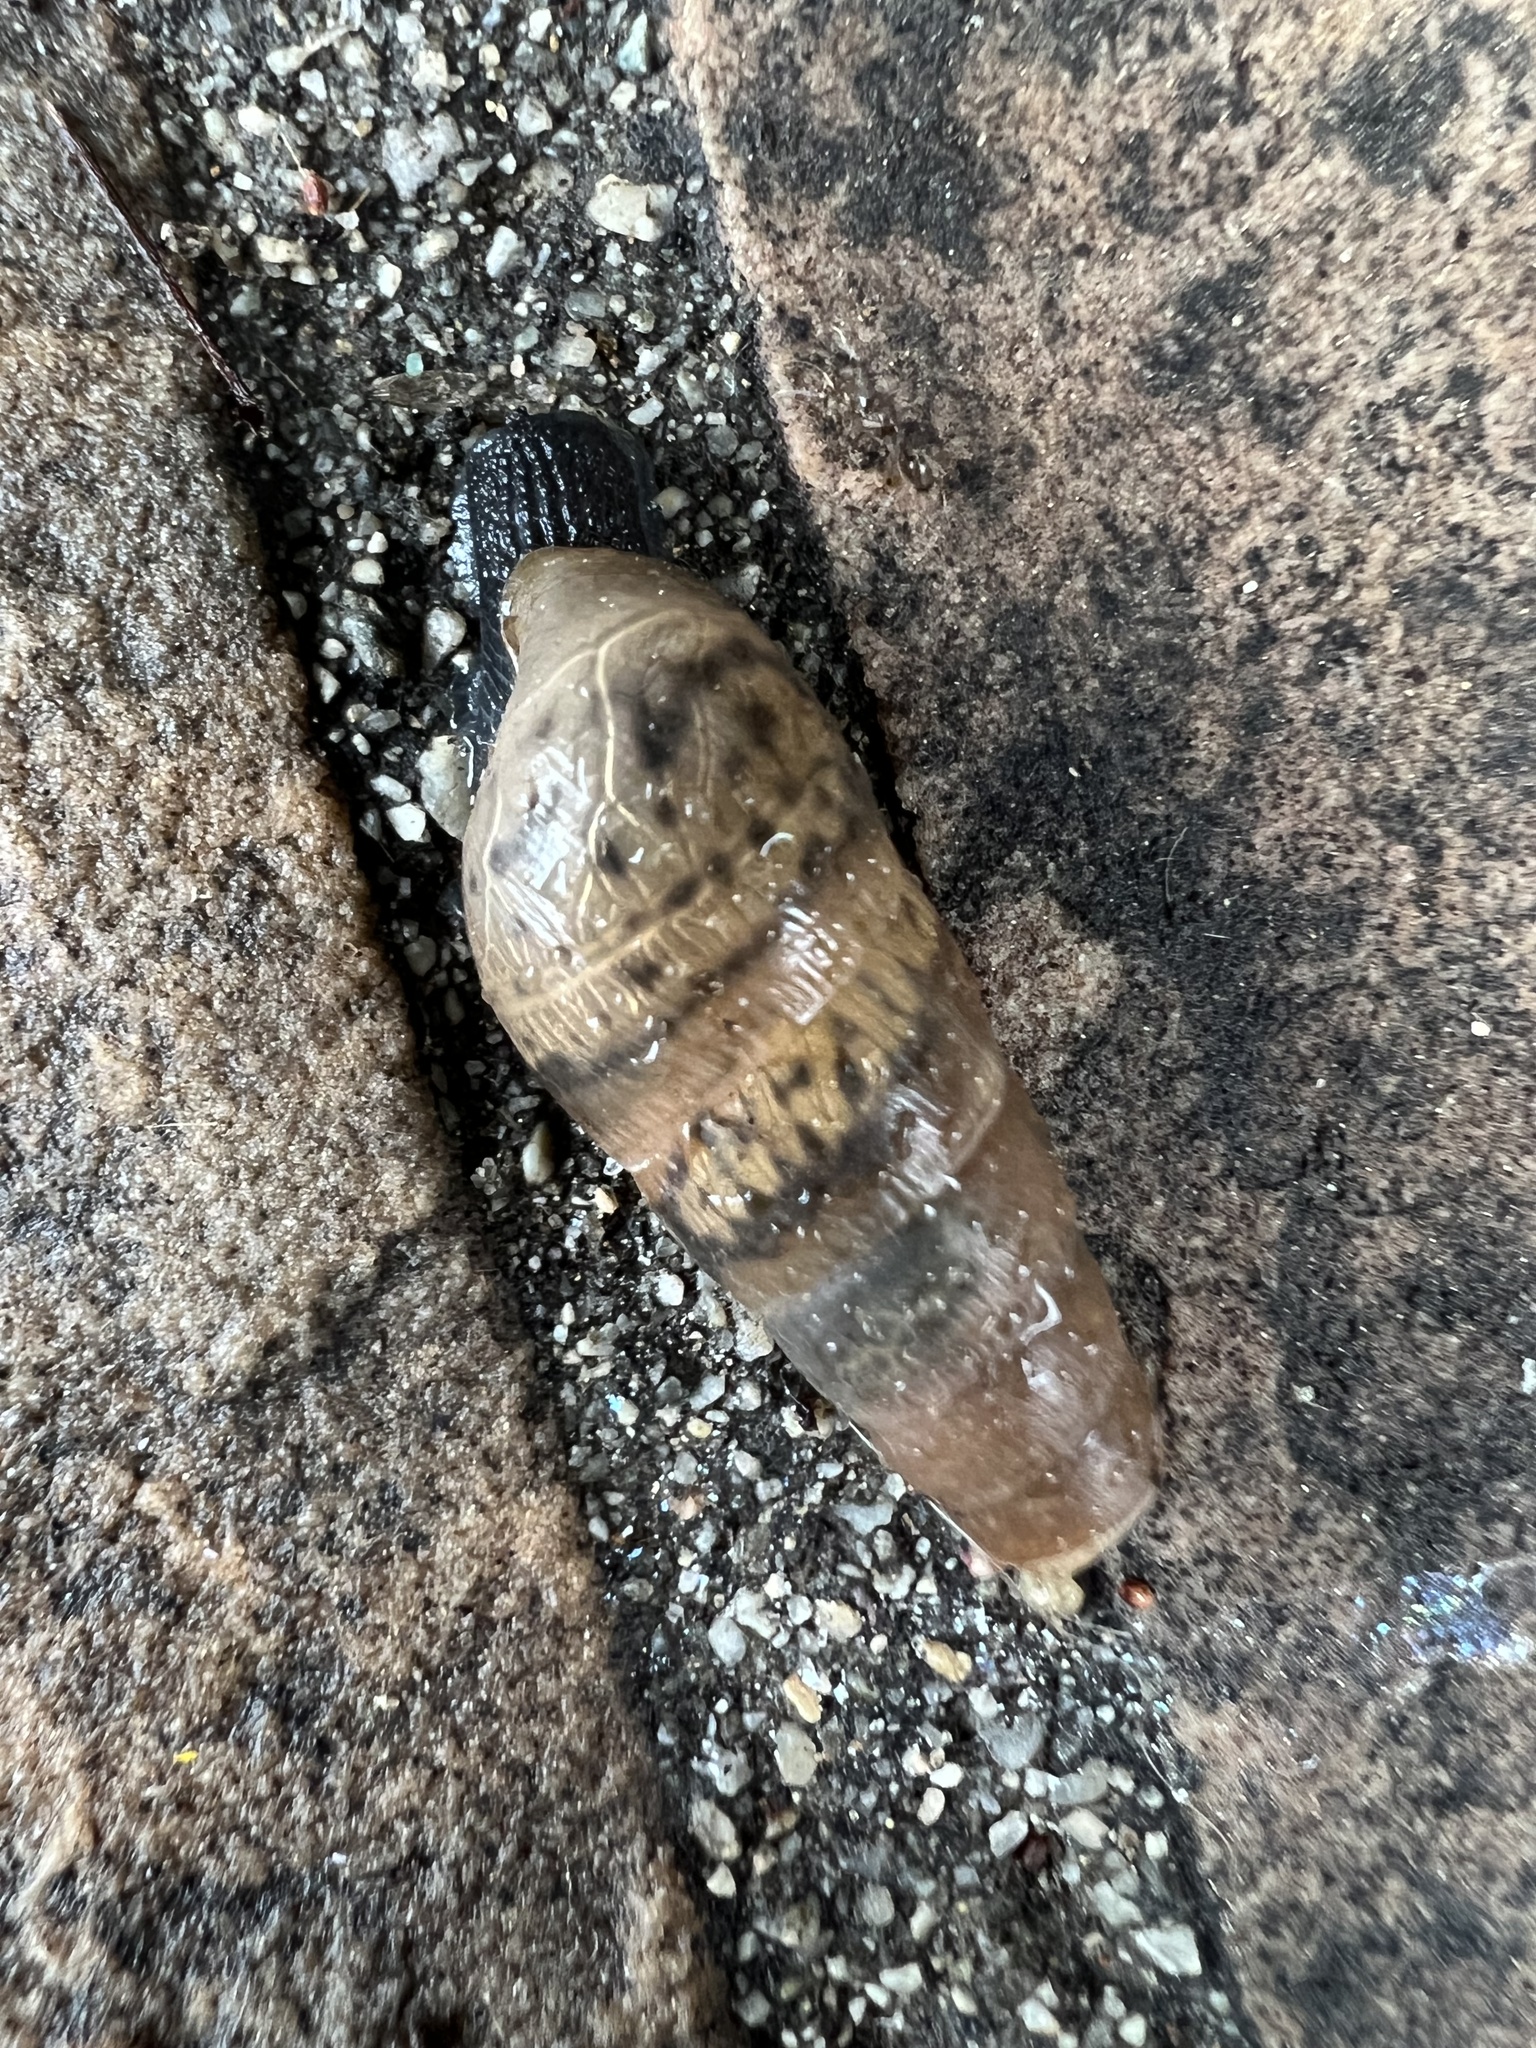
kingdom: Animalia
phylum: Mollusca
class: Gastropoda
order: Stylommatophora
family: Achatinidae
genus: Rumina
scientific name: Rumina decollata
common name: Decollate snail
